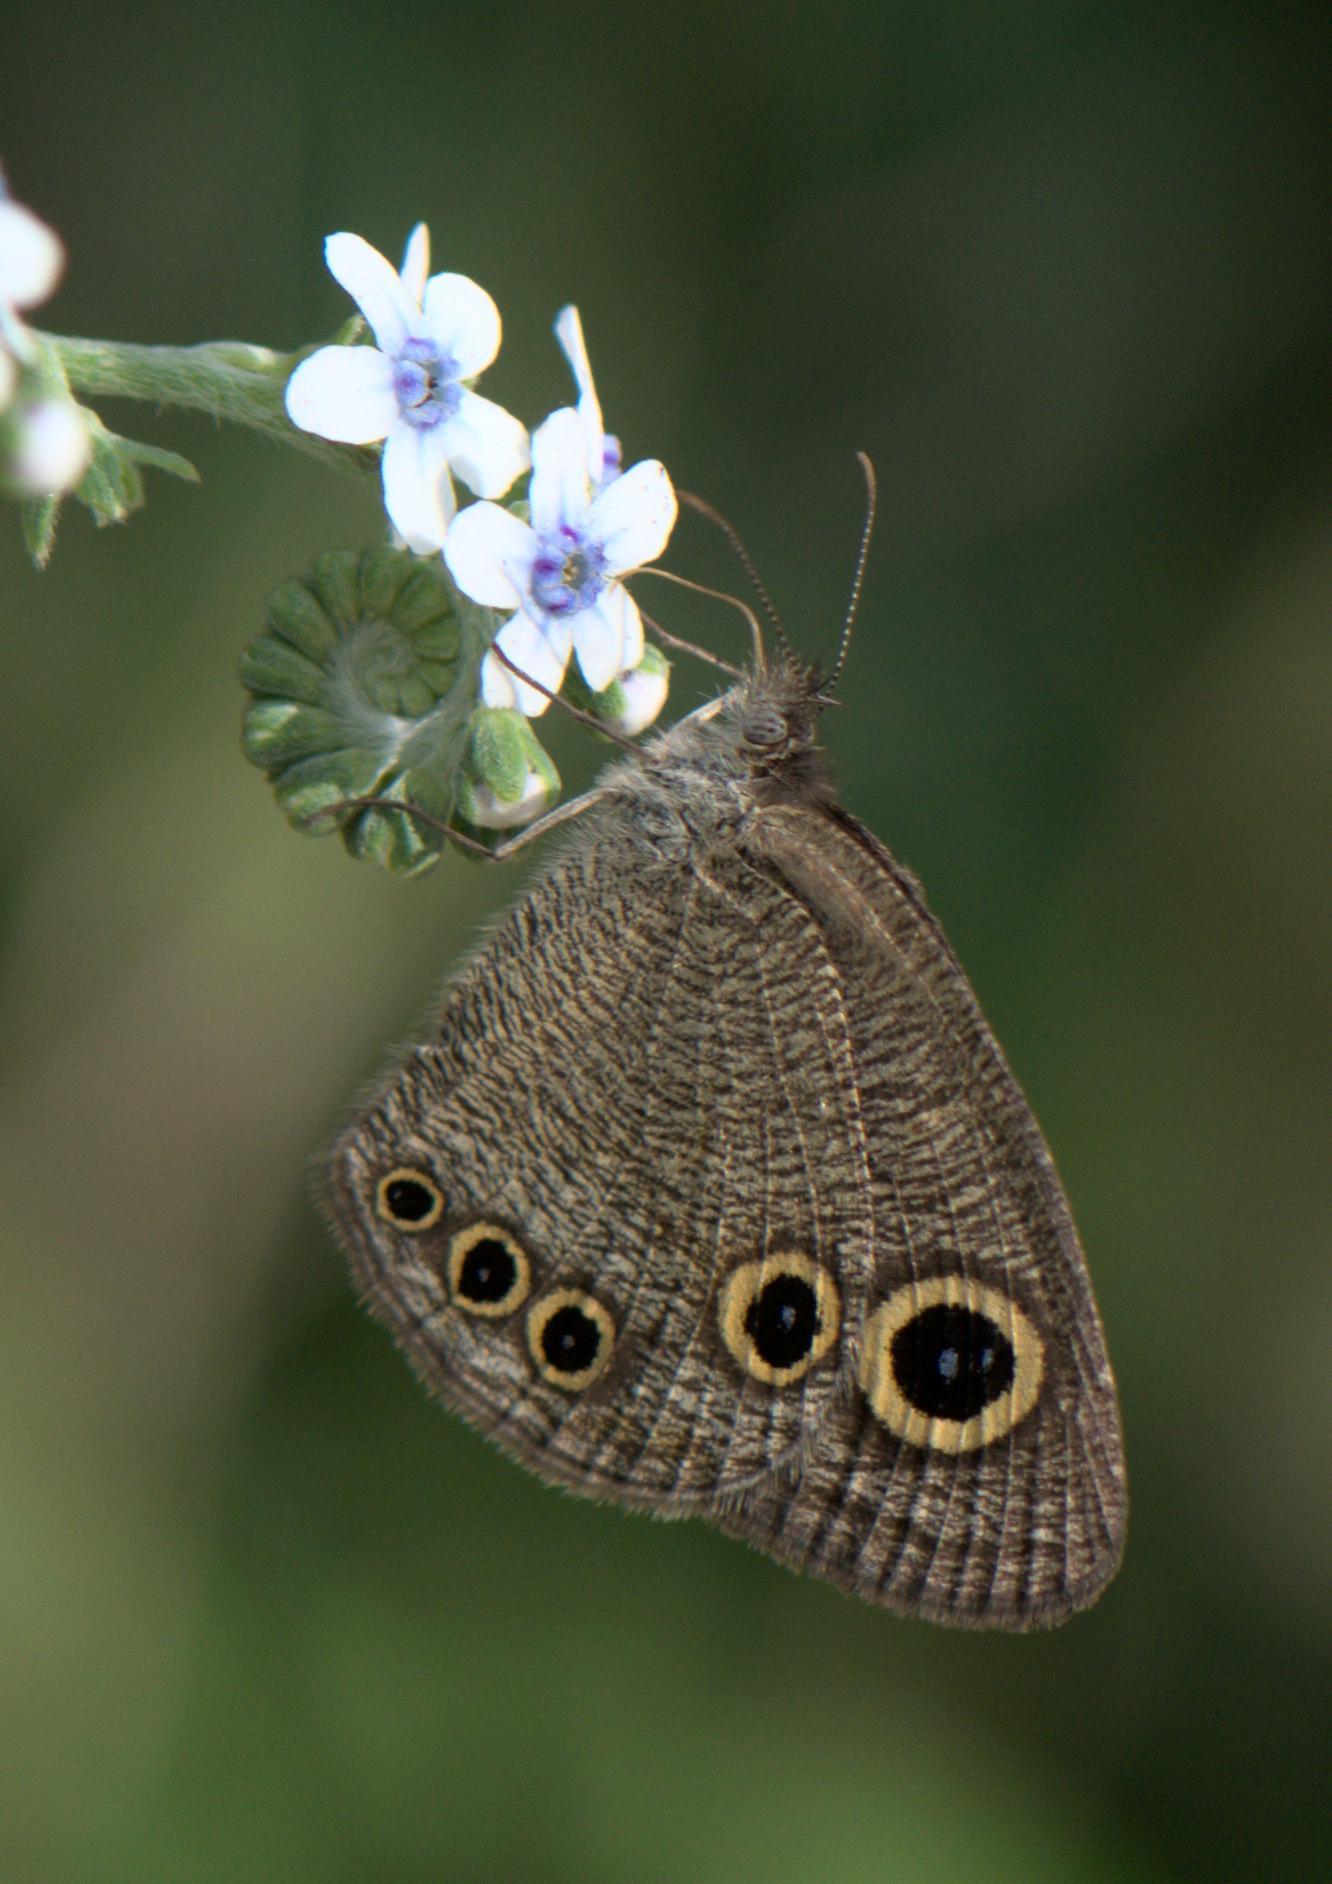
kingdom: Animalia
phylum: Arthropoda
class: Insecta
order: Lepidoptera
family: Nymphalidae
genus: Ypthima
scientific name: Ypthima huebneri
